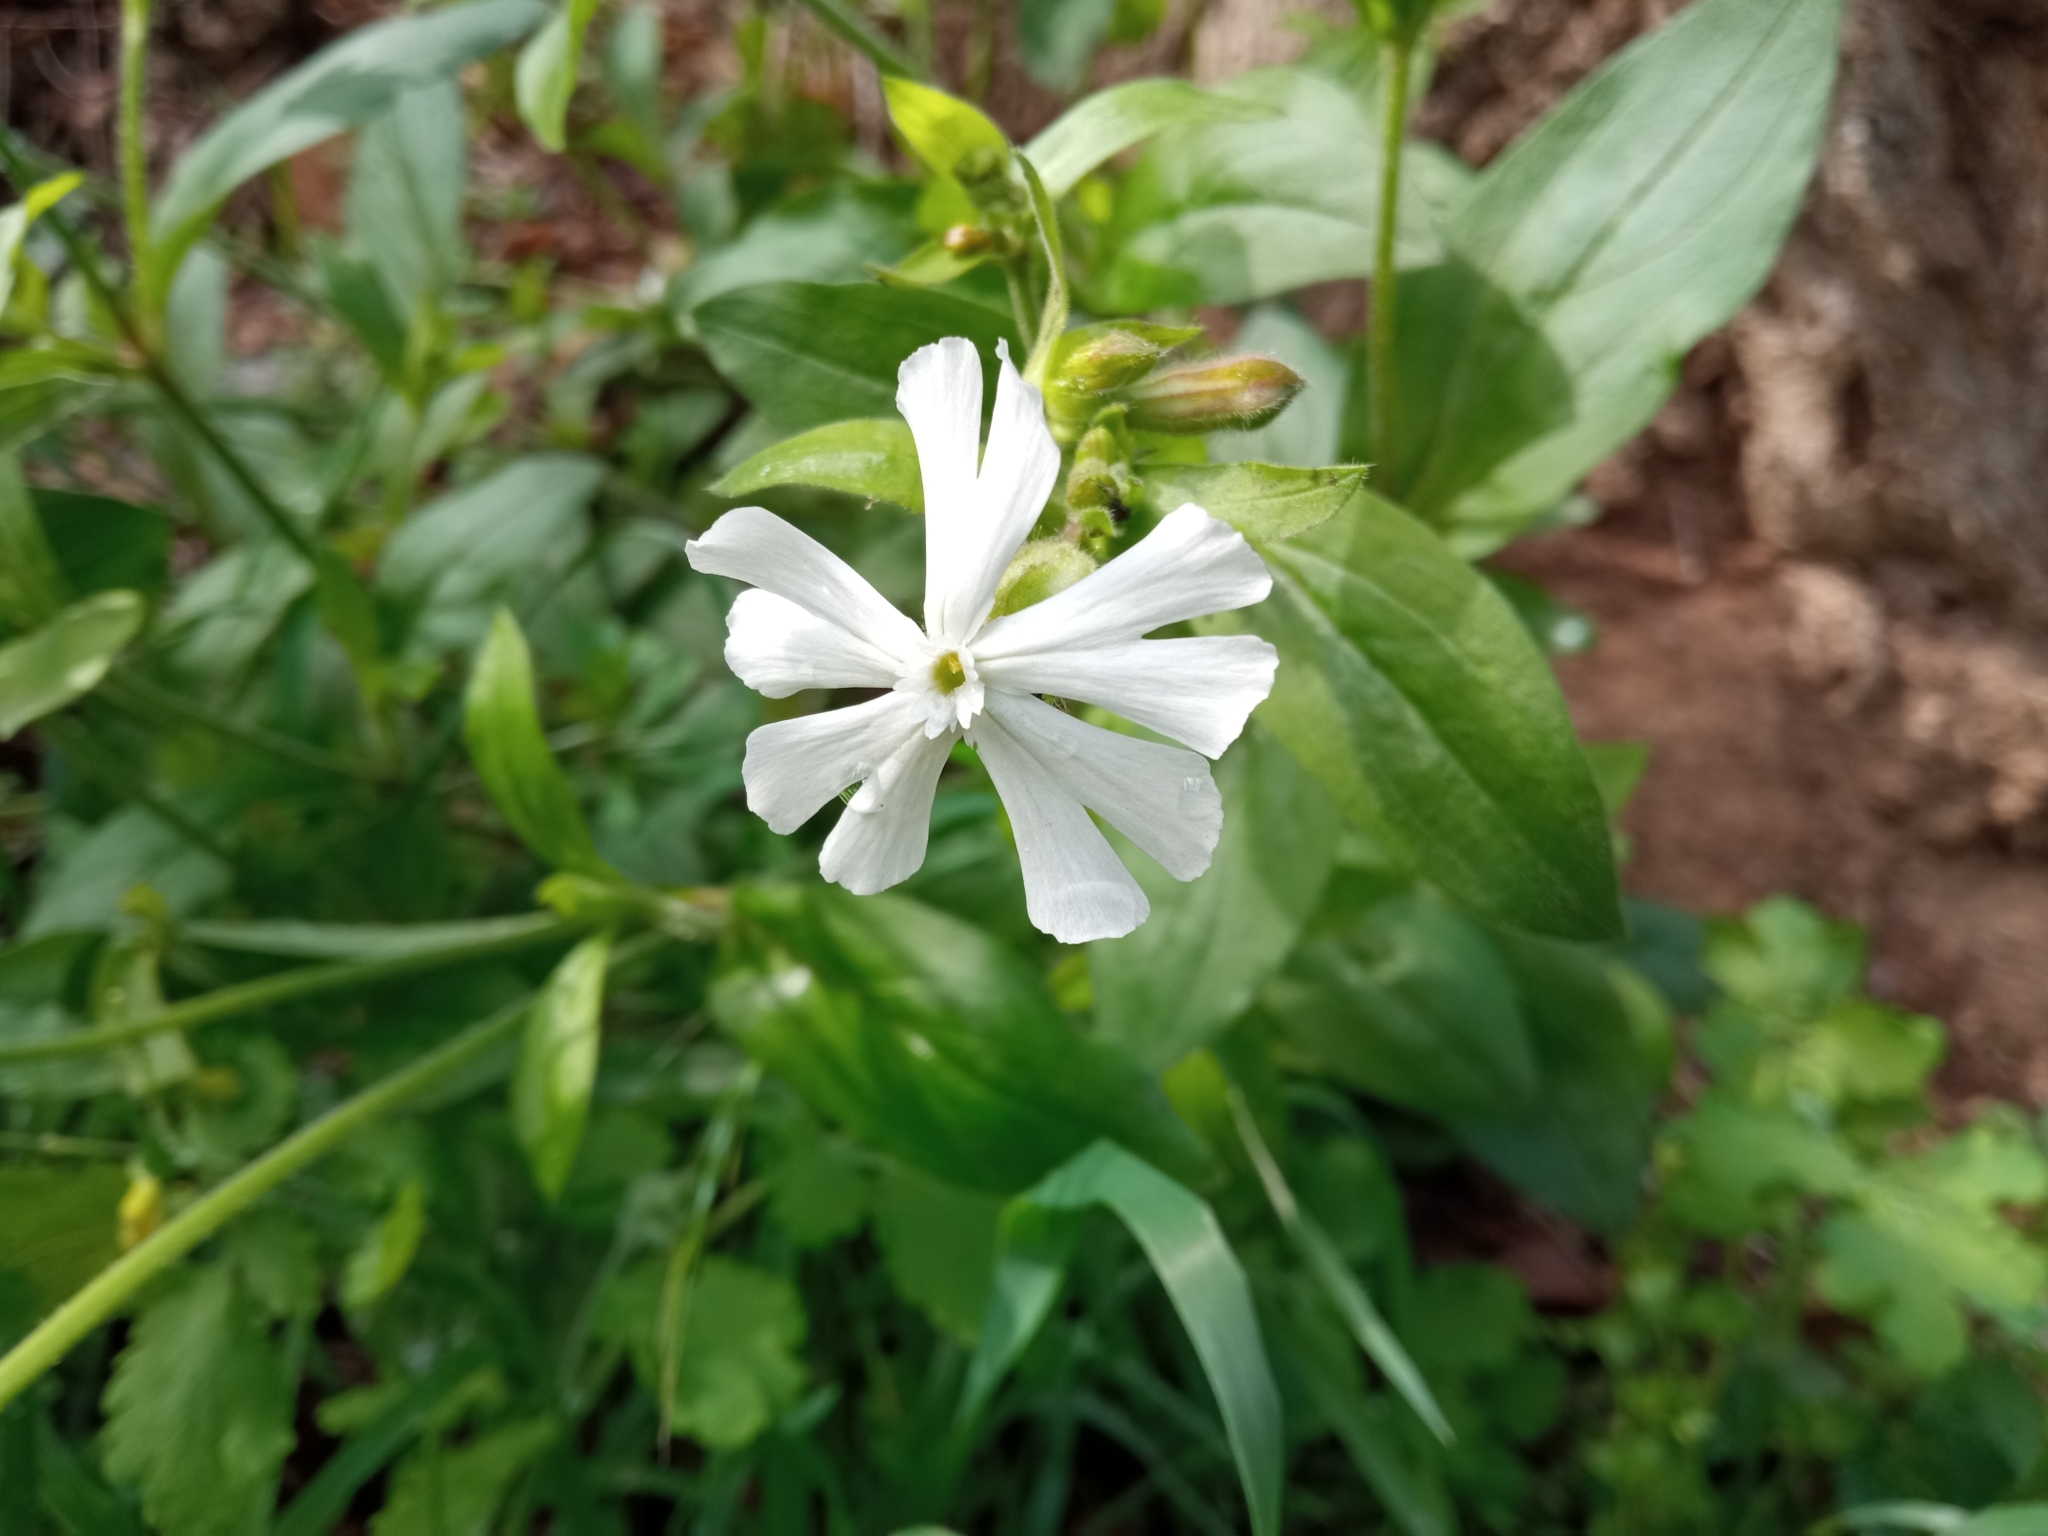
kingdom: Plantae
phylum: Tracheophyta
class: Magnoliopsida
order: Caryophyllales
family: Caryophyllaceae
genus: Silene
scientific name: Silene latifolia
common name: White campion
